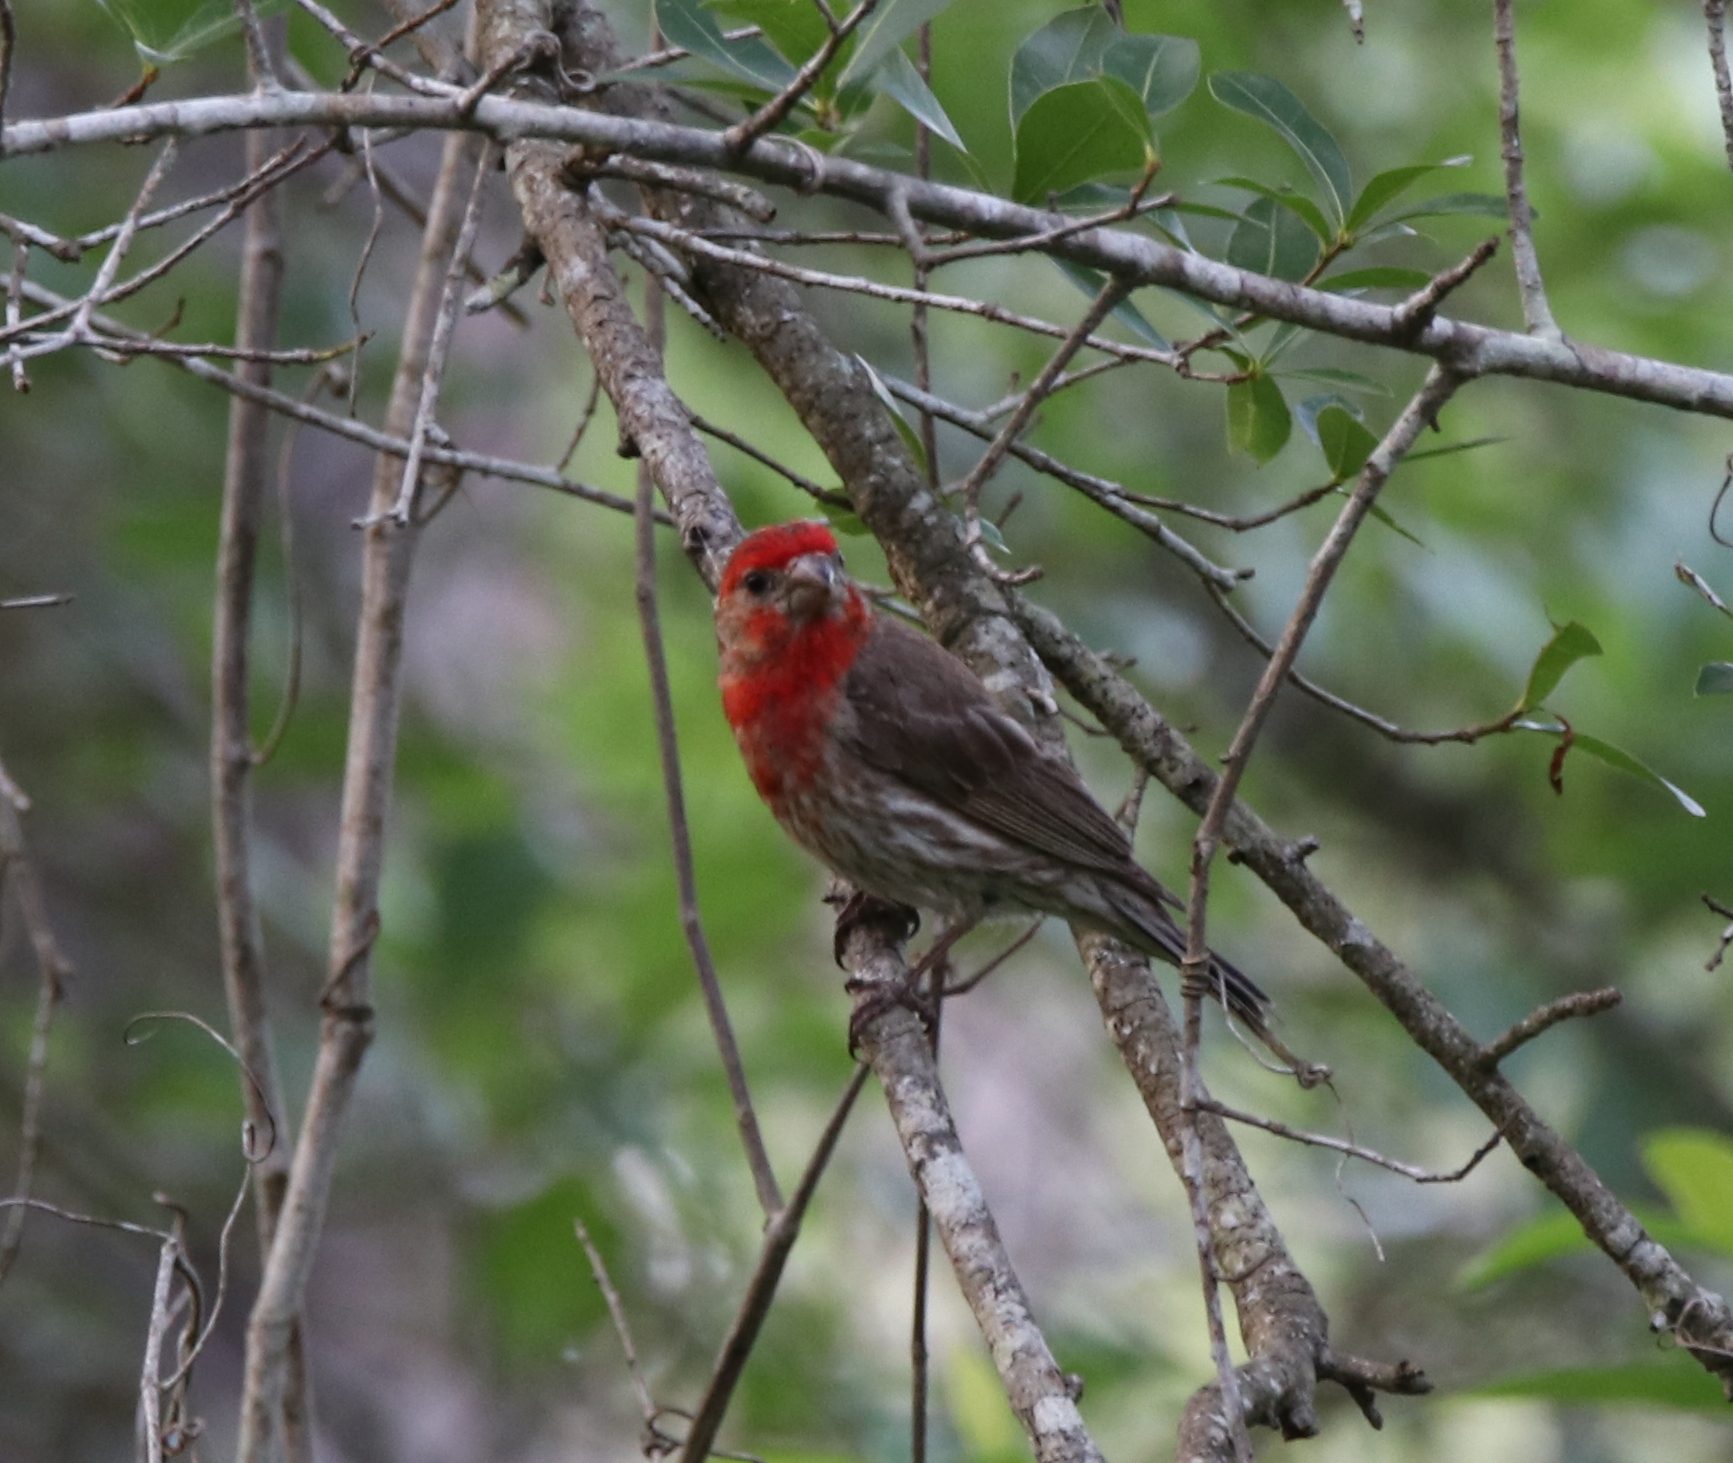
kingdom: Animalia
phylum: Chordata
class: Aves
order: Passeriformes
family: Fringillidae
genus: Haemorhous
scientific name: Haemorhous mexicanus
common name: House finch
